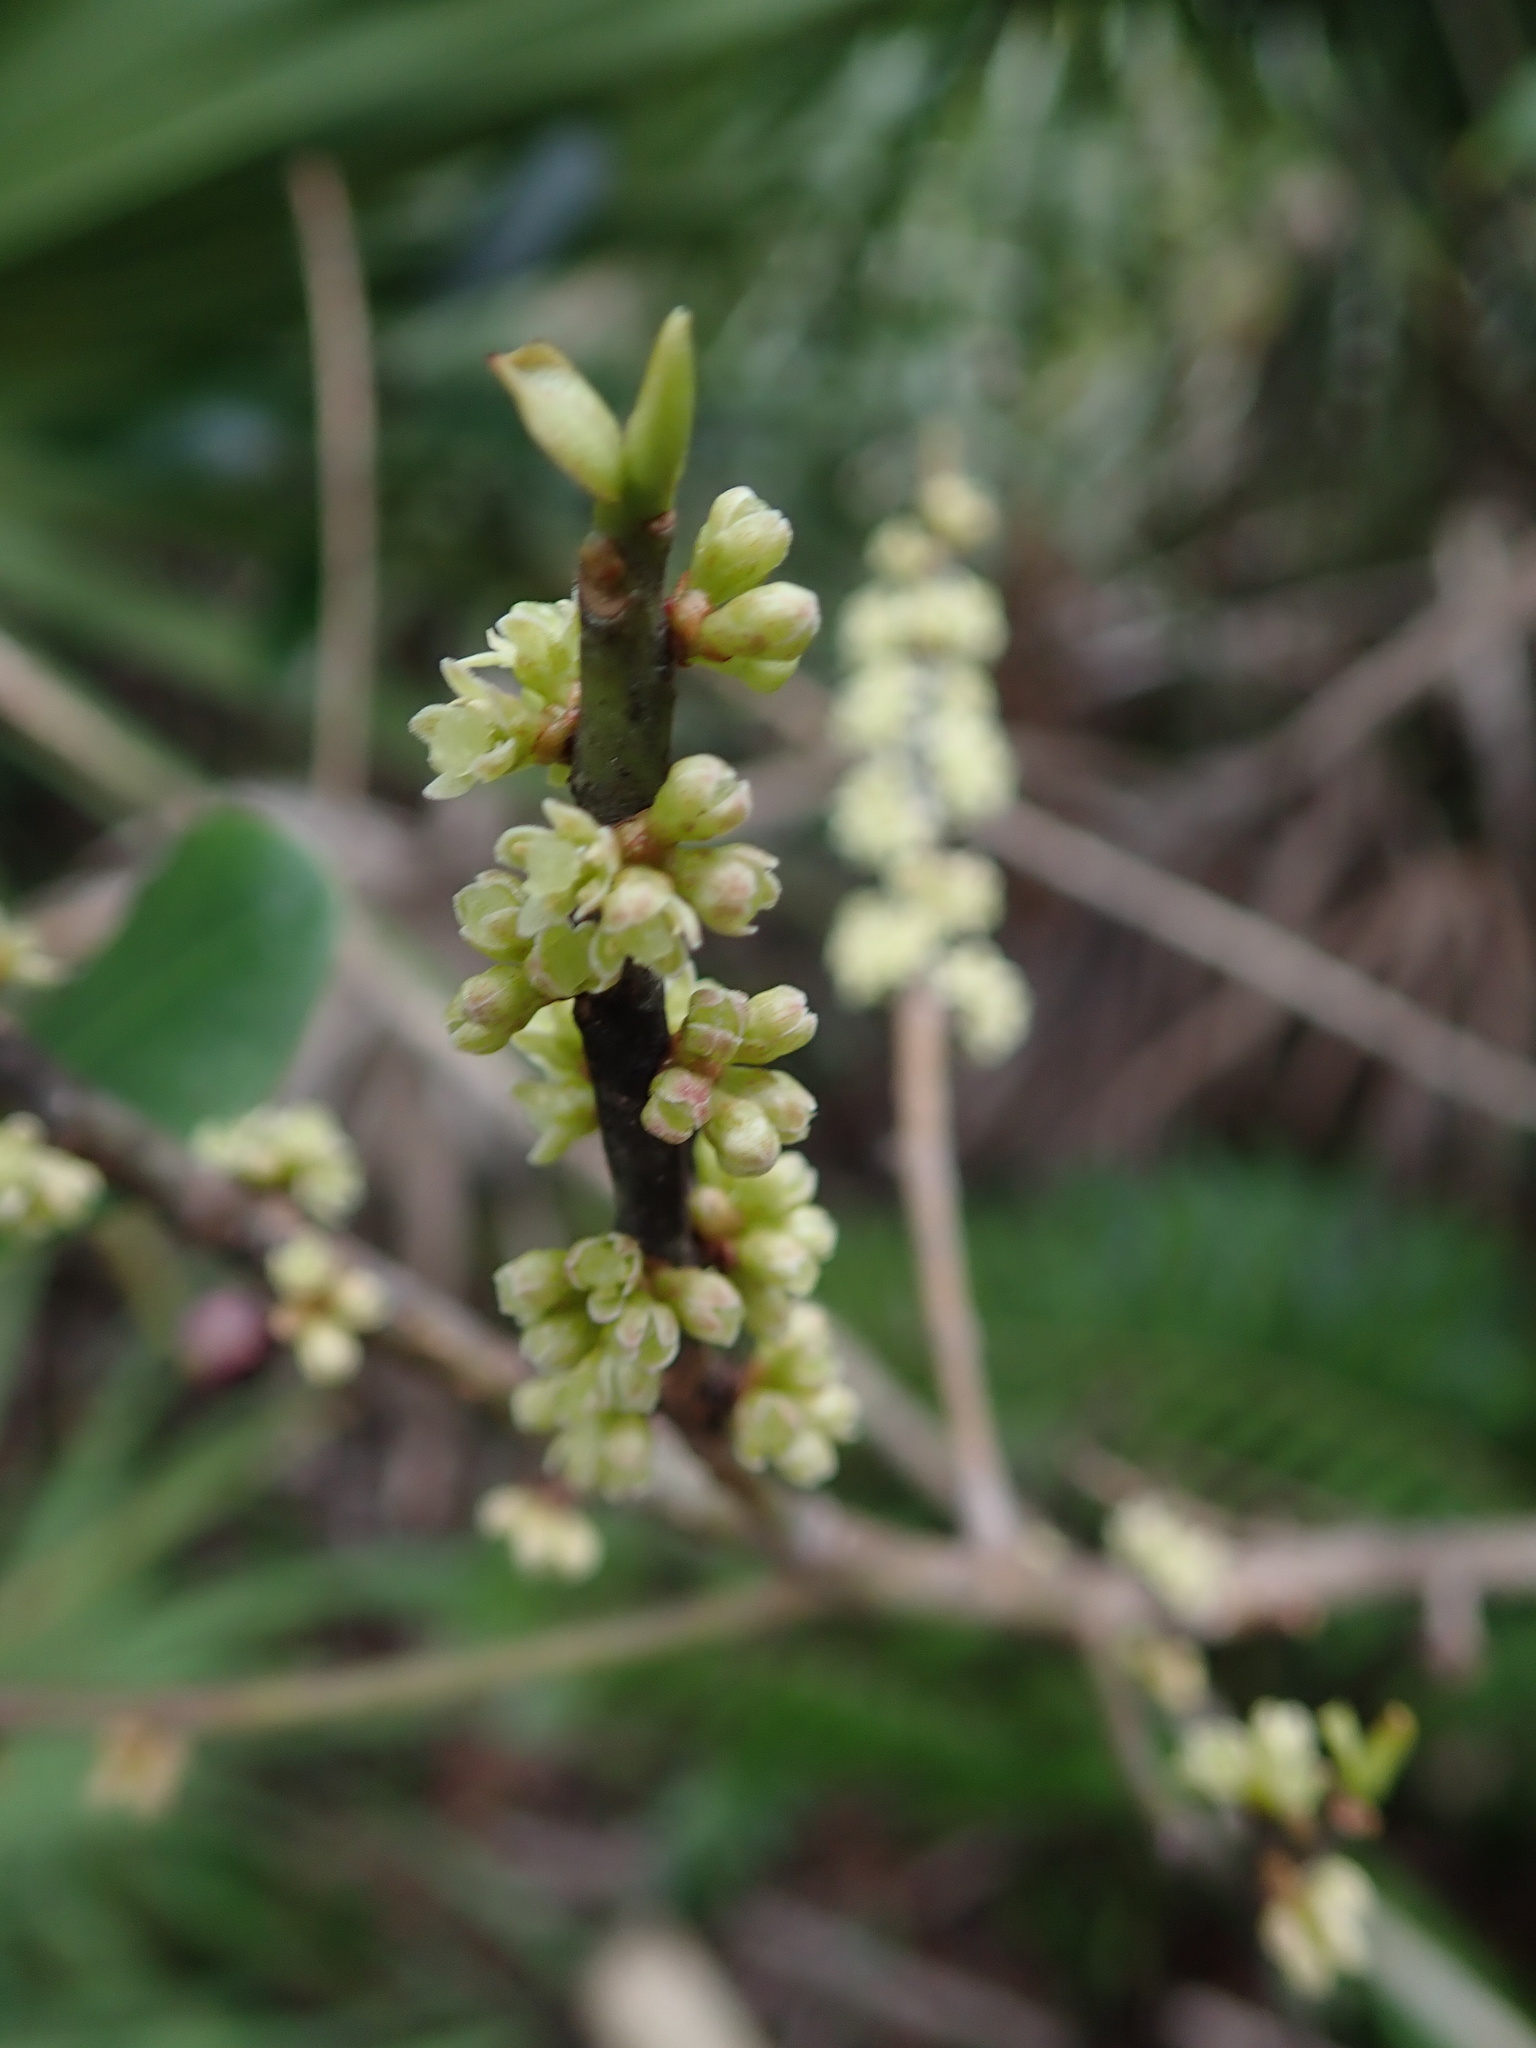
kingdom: Plantae
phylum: Tracheophyta
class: Magnoliopsida
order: Ericales
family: Primulaceae
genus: Myrsine
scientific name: Myrsine floridana
